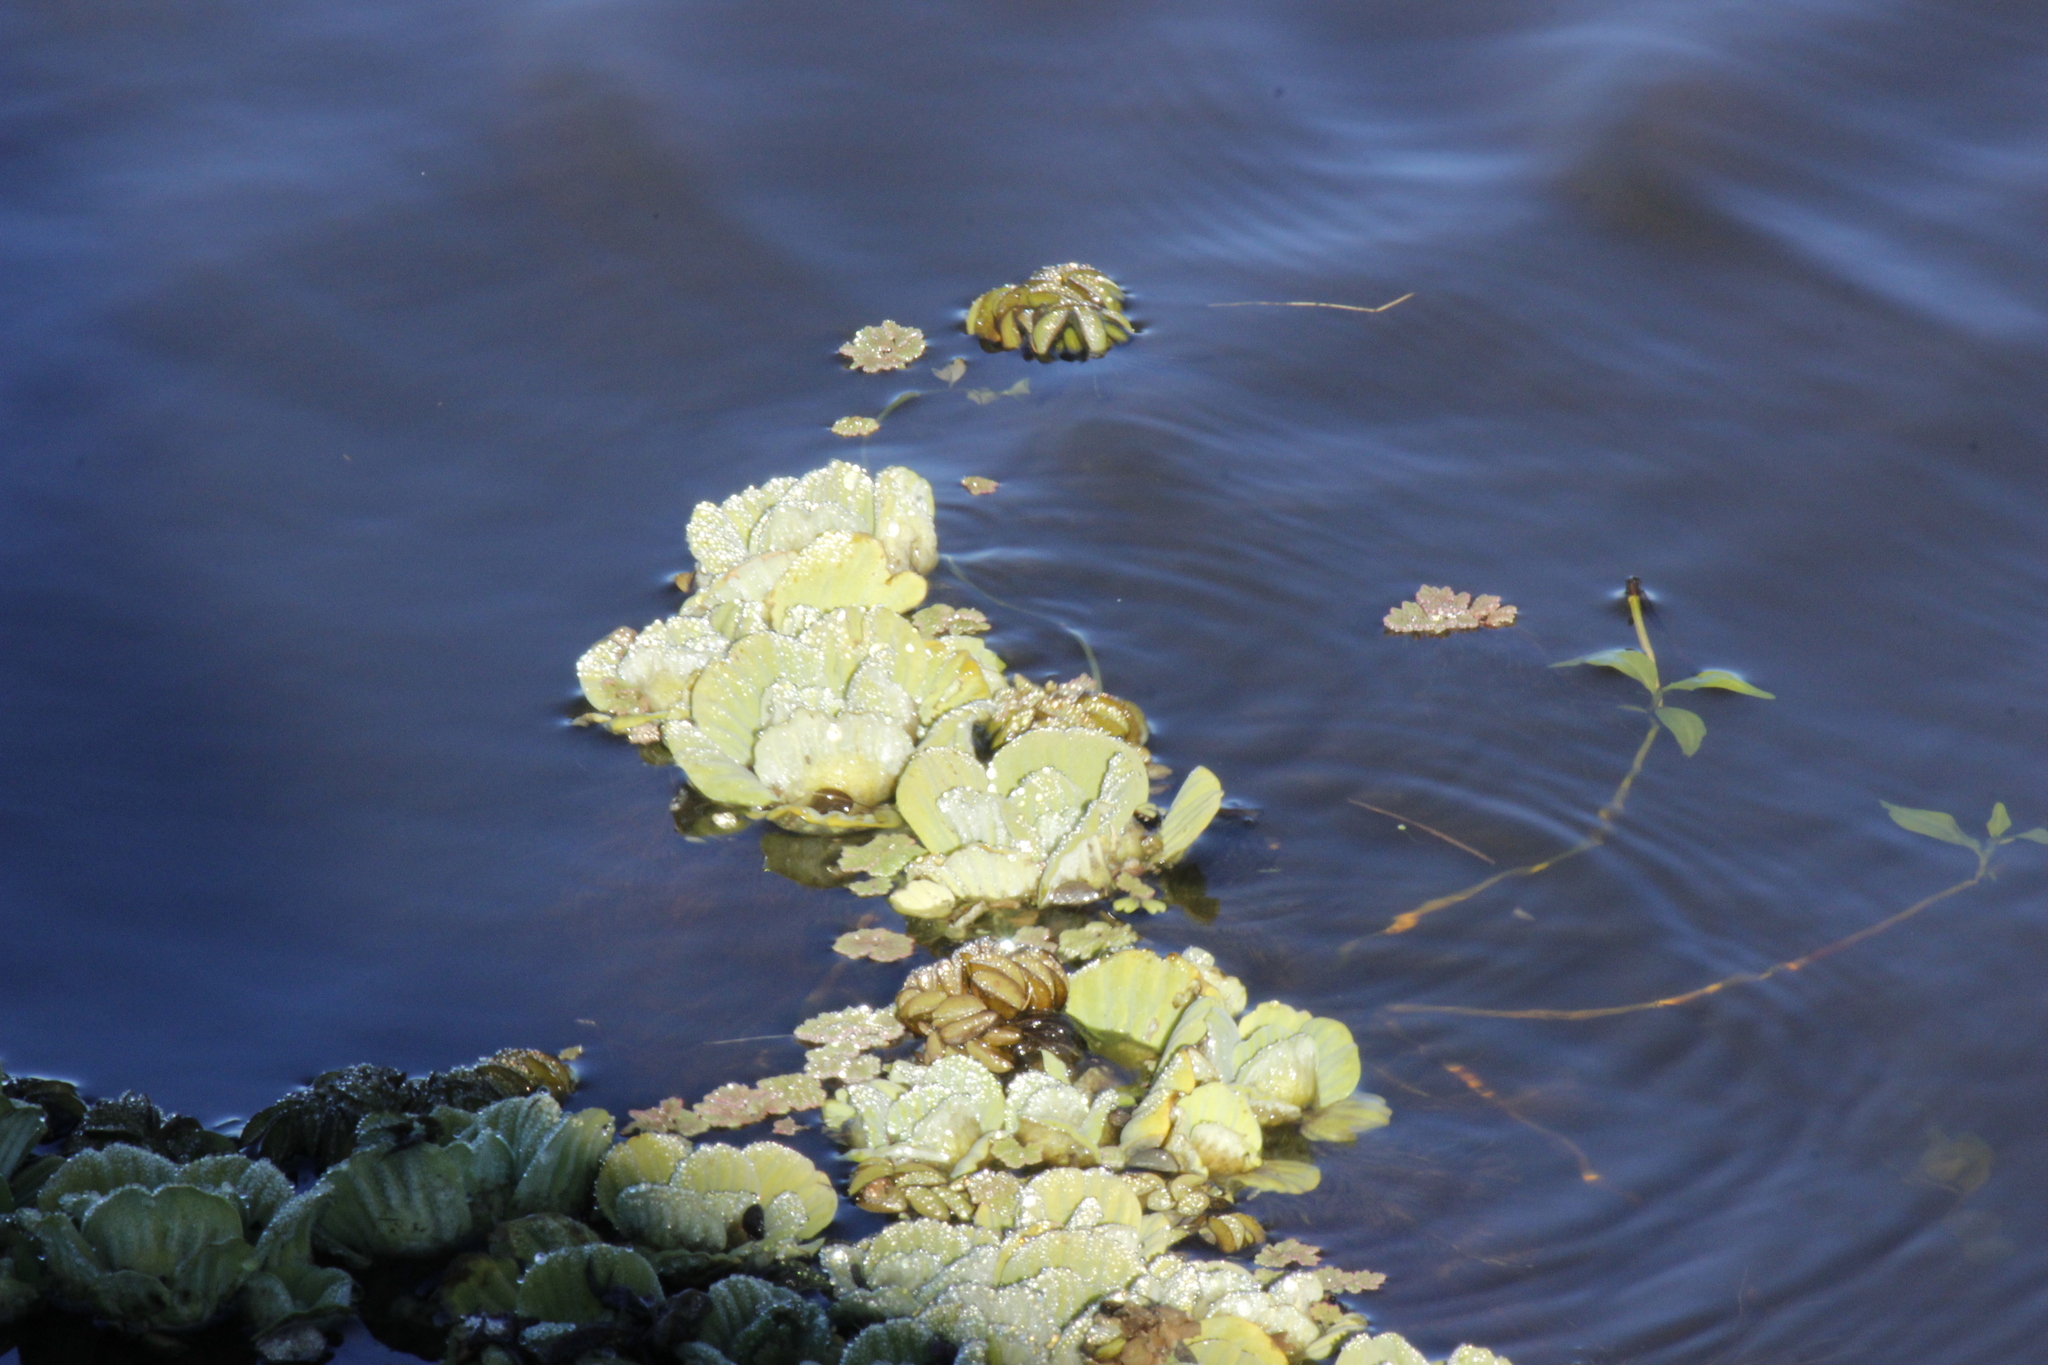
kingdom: Plantae
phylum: Tracheophyta
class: Liliopsida
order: Alismatales
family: Araceae
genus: Pistia
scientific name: Pistia stratiotes
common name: Water lettuce
